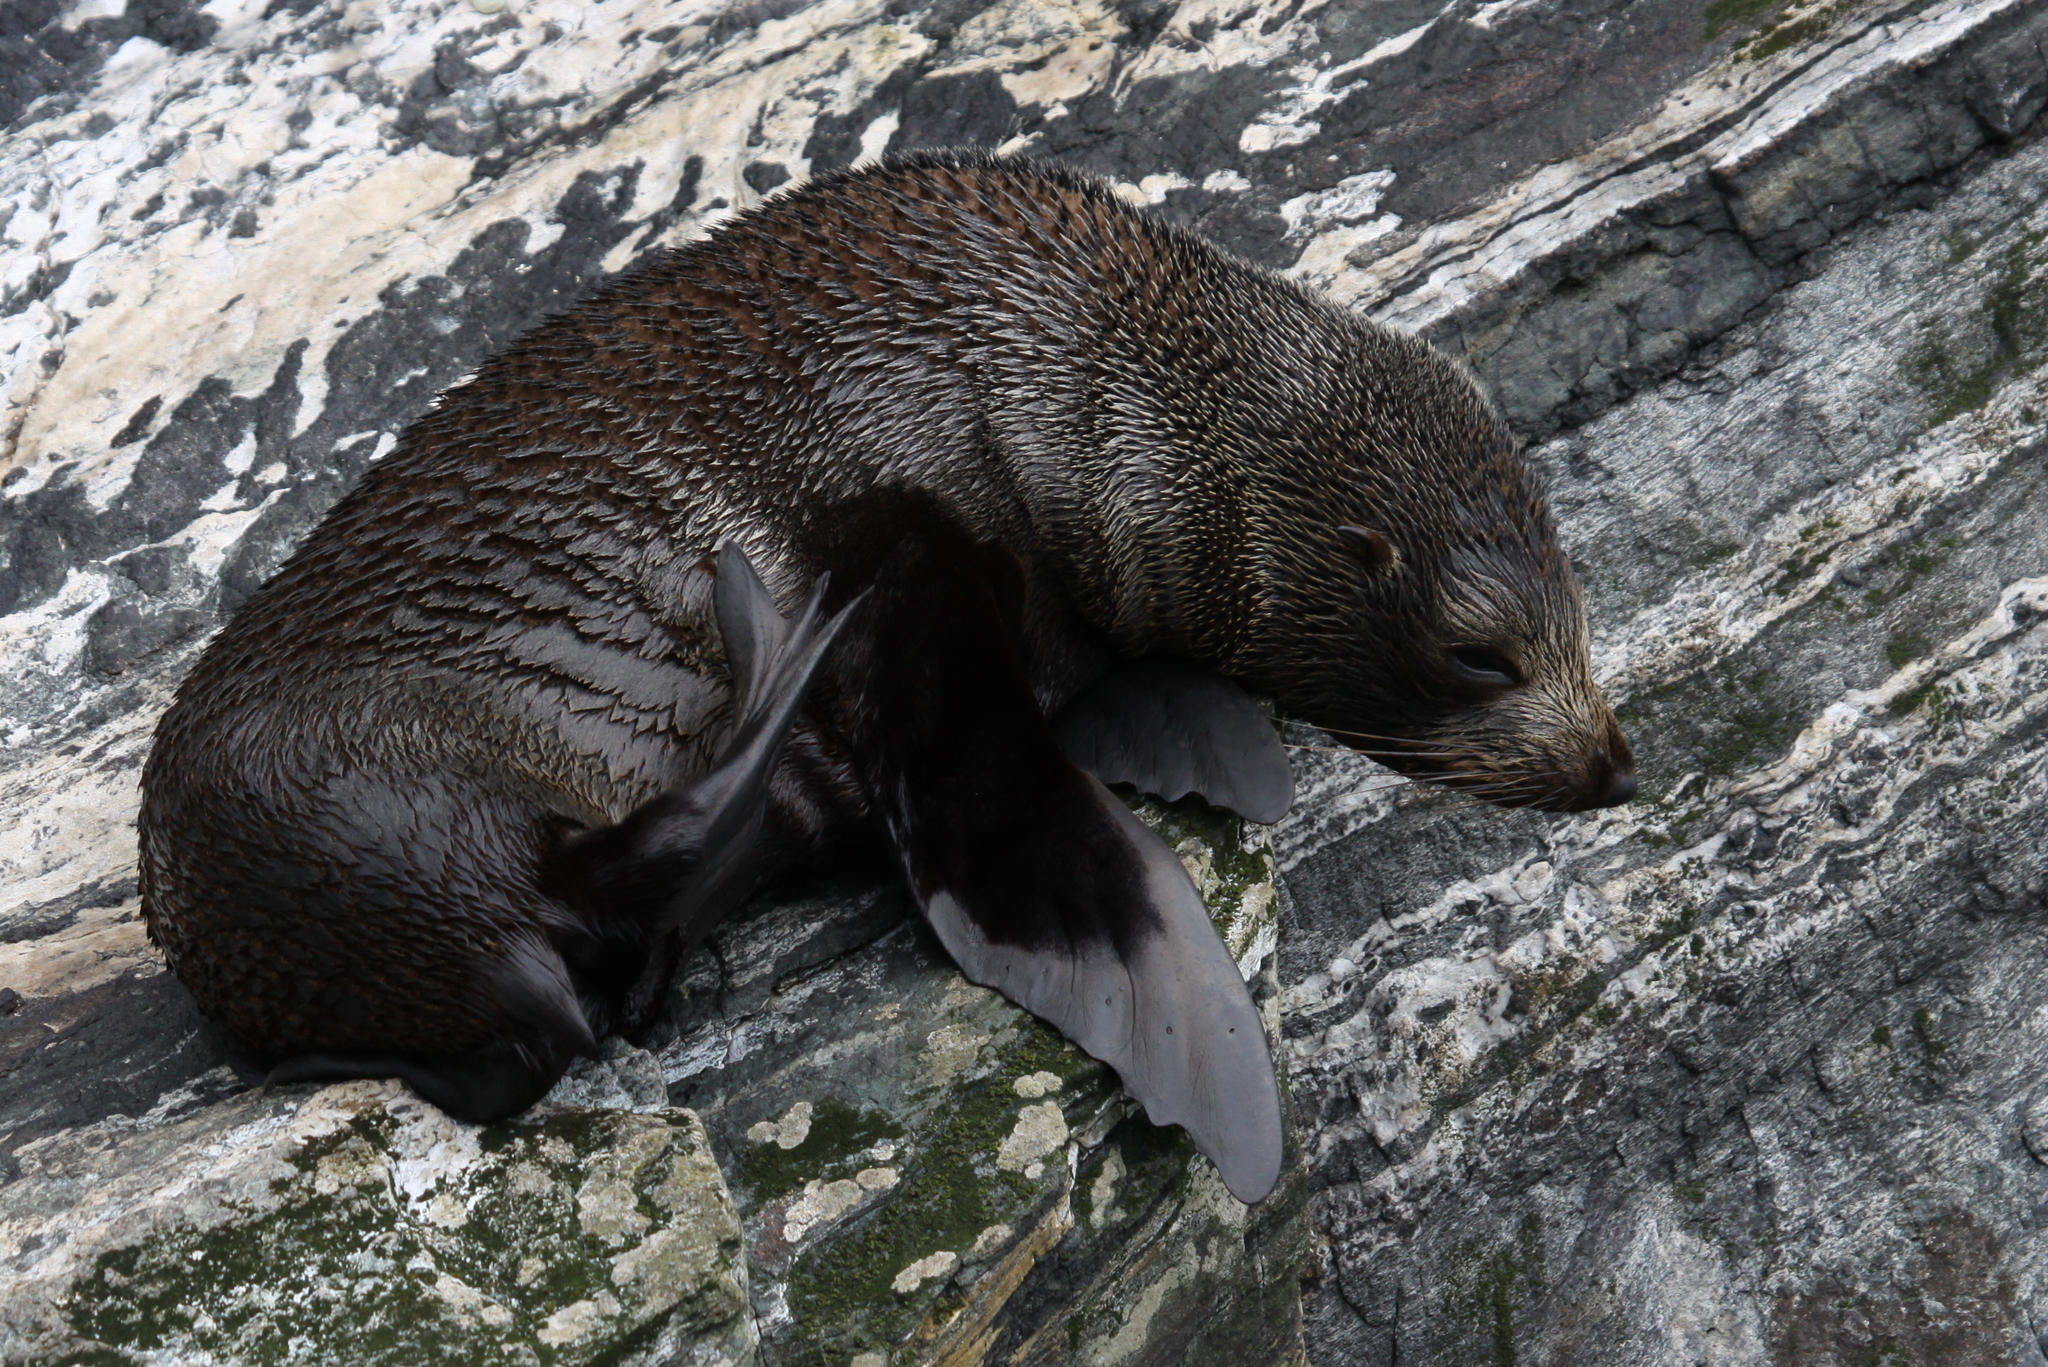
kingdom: Animalia
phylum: Chordata
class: Mammalia
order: Carnivora
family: Otariidae
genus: Arctocephalus
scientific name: Arctocephalus forsteri
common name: New zealand fur seal
